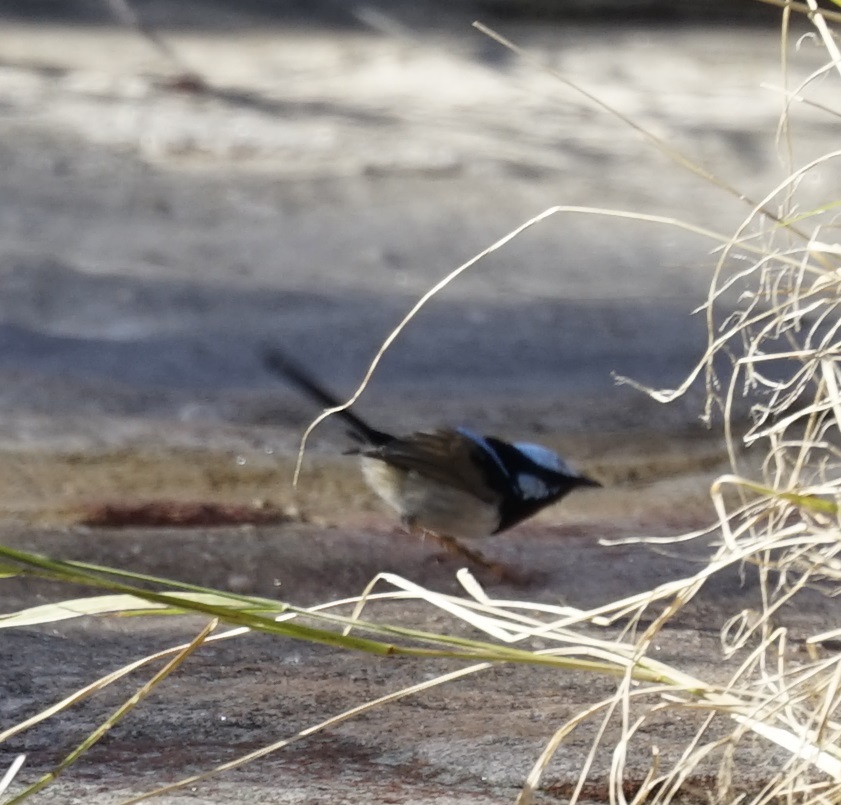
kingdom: Animalia
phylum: Chordata
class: Aves
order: Passeriformes
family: Maluridae
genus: Malurus
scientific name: Malurus cyaneus
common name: Superb fairywren
